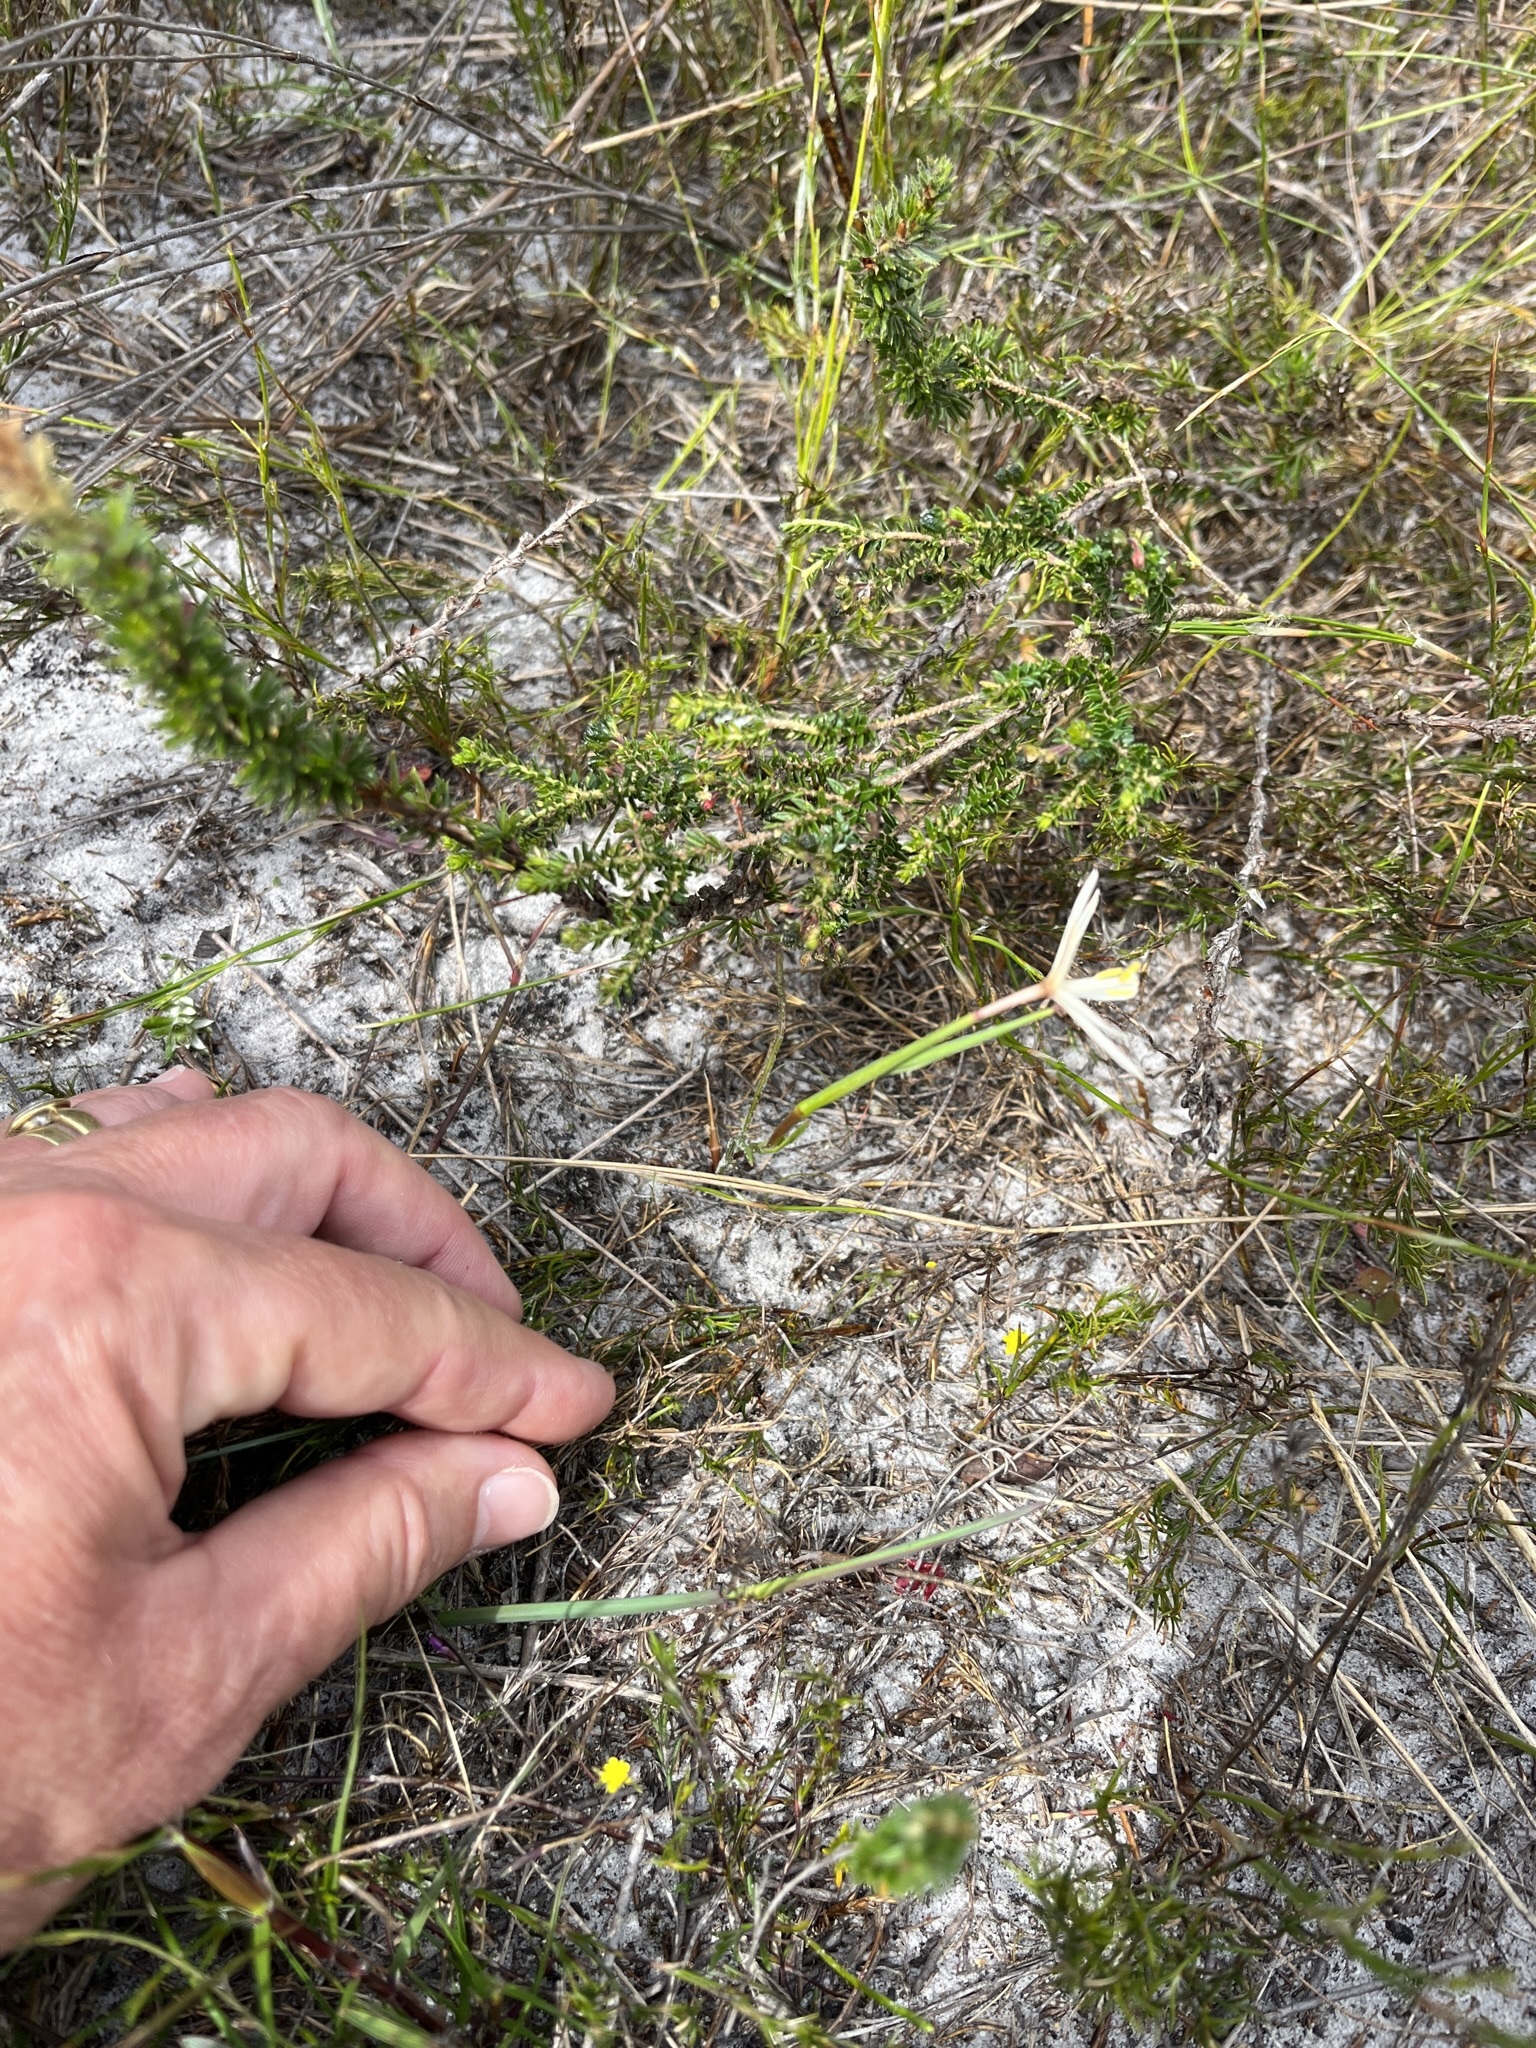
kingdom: Plantae
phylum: Tracheophyta
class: Liliopsida
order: Asparagales
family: Iridaceae
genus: Geissorhiza
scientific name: Geissorhiza tenella
